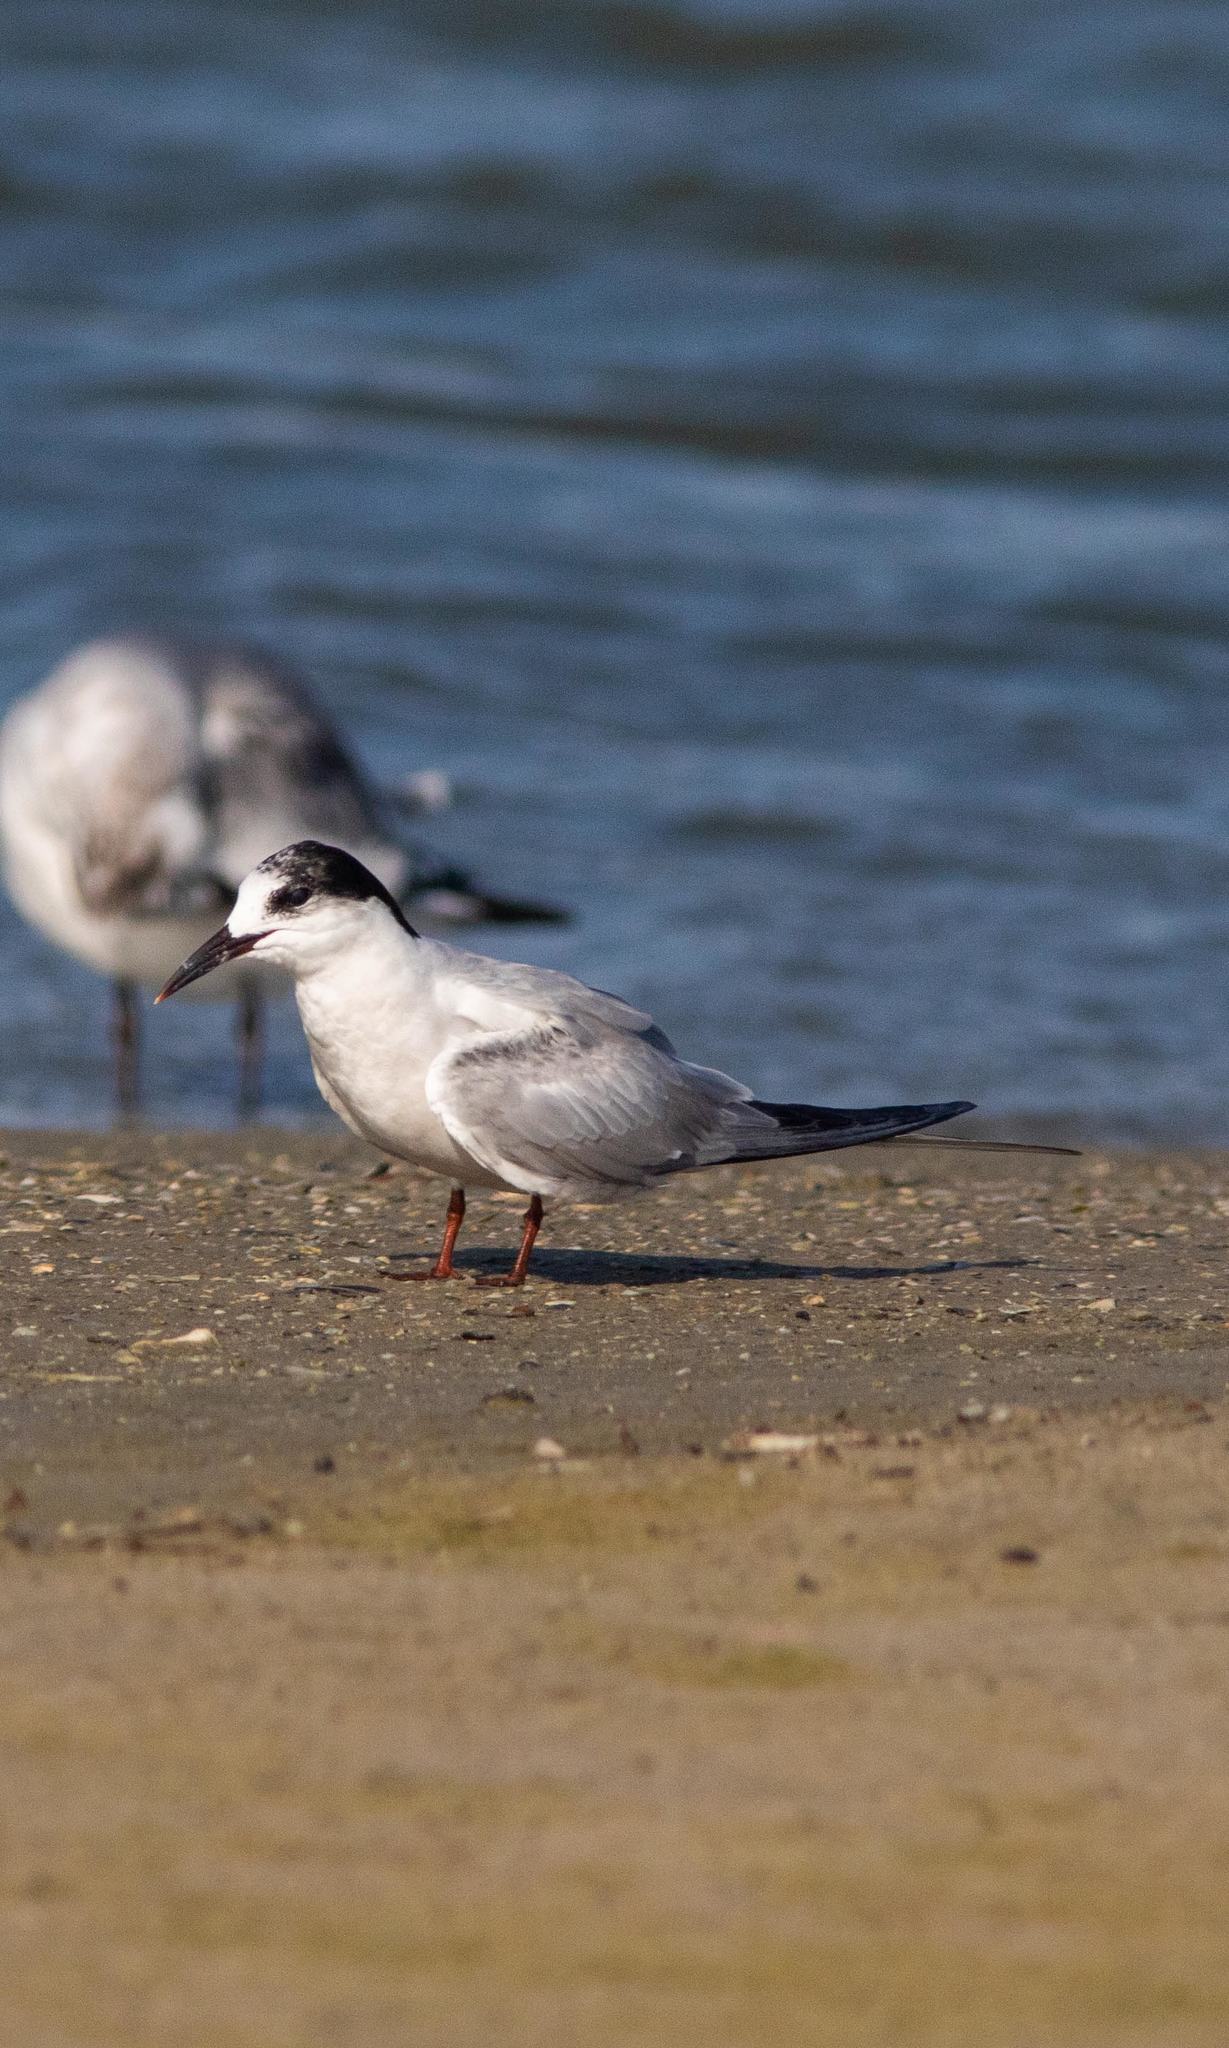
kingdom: Animalia
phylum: Chordata
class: Aves
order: Charadriiformes
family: Laridae
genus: Sterna
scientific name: Sterna hirundo
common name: Common tern
